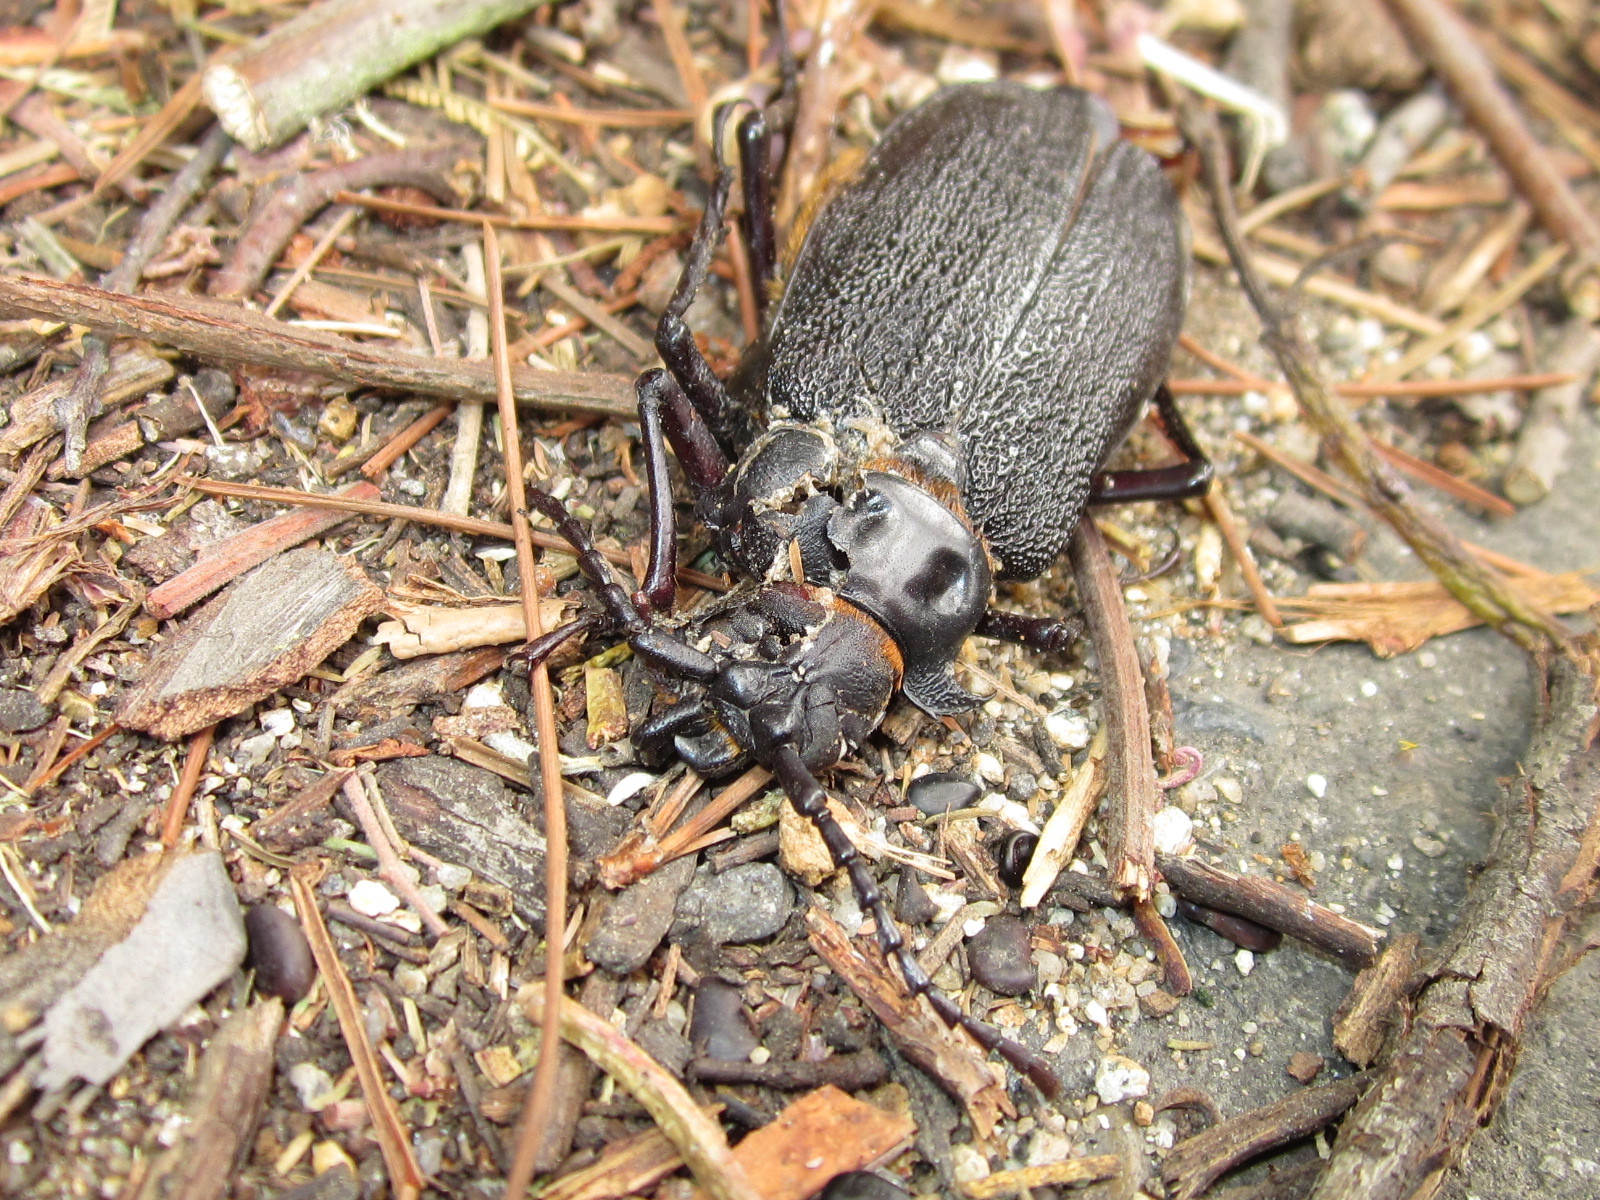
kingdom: Animalia
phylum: Arthropoda
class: Insecta
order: Coleoptera
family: Cerambycidae
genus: Acanthinodera
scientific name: Acanthinodera cumingii
